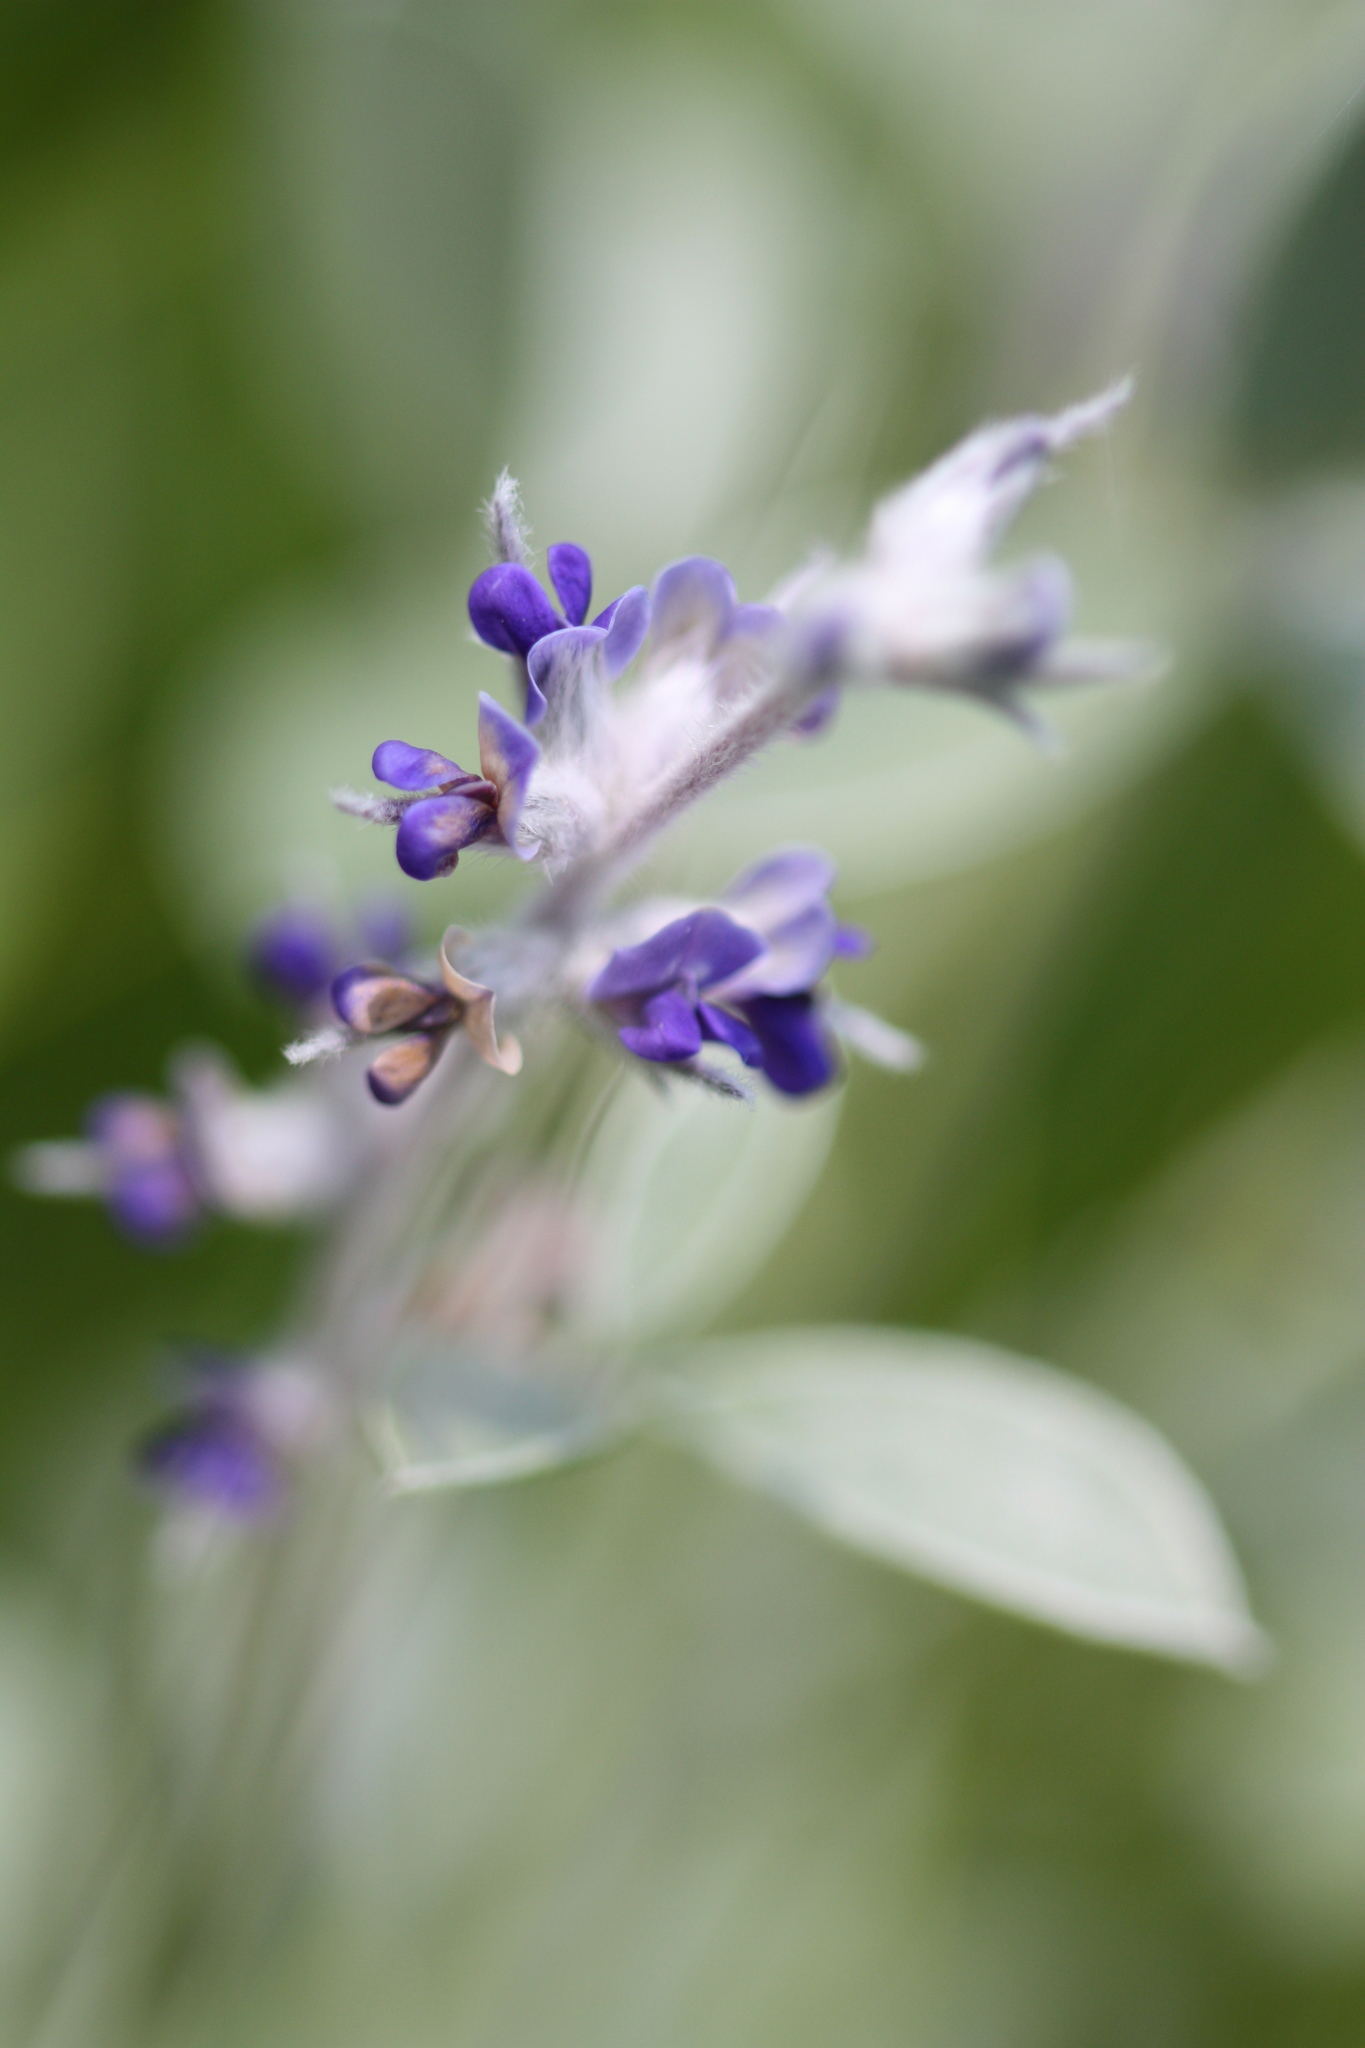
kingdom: Plantae
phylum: Tracheophyta
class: Magnoliopsida
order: Fabales
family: Fabaceae
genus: Pediomelum
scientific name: Pediomelum argophyllum
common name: Silver-leaved indian breadroot
